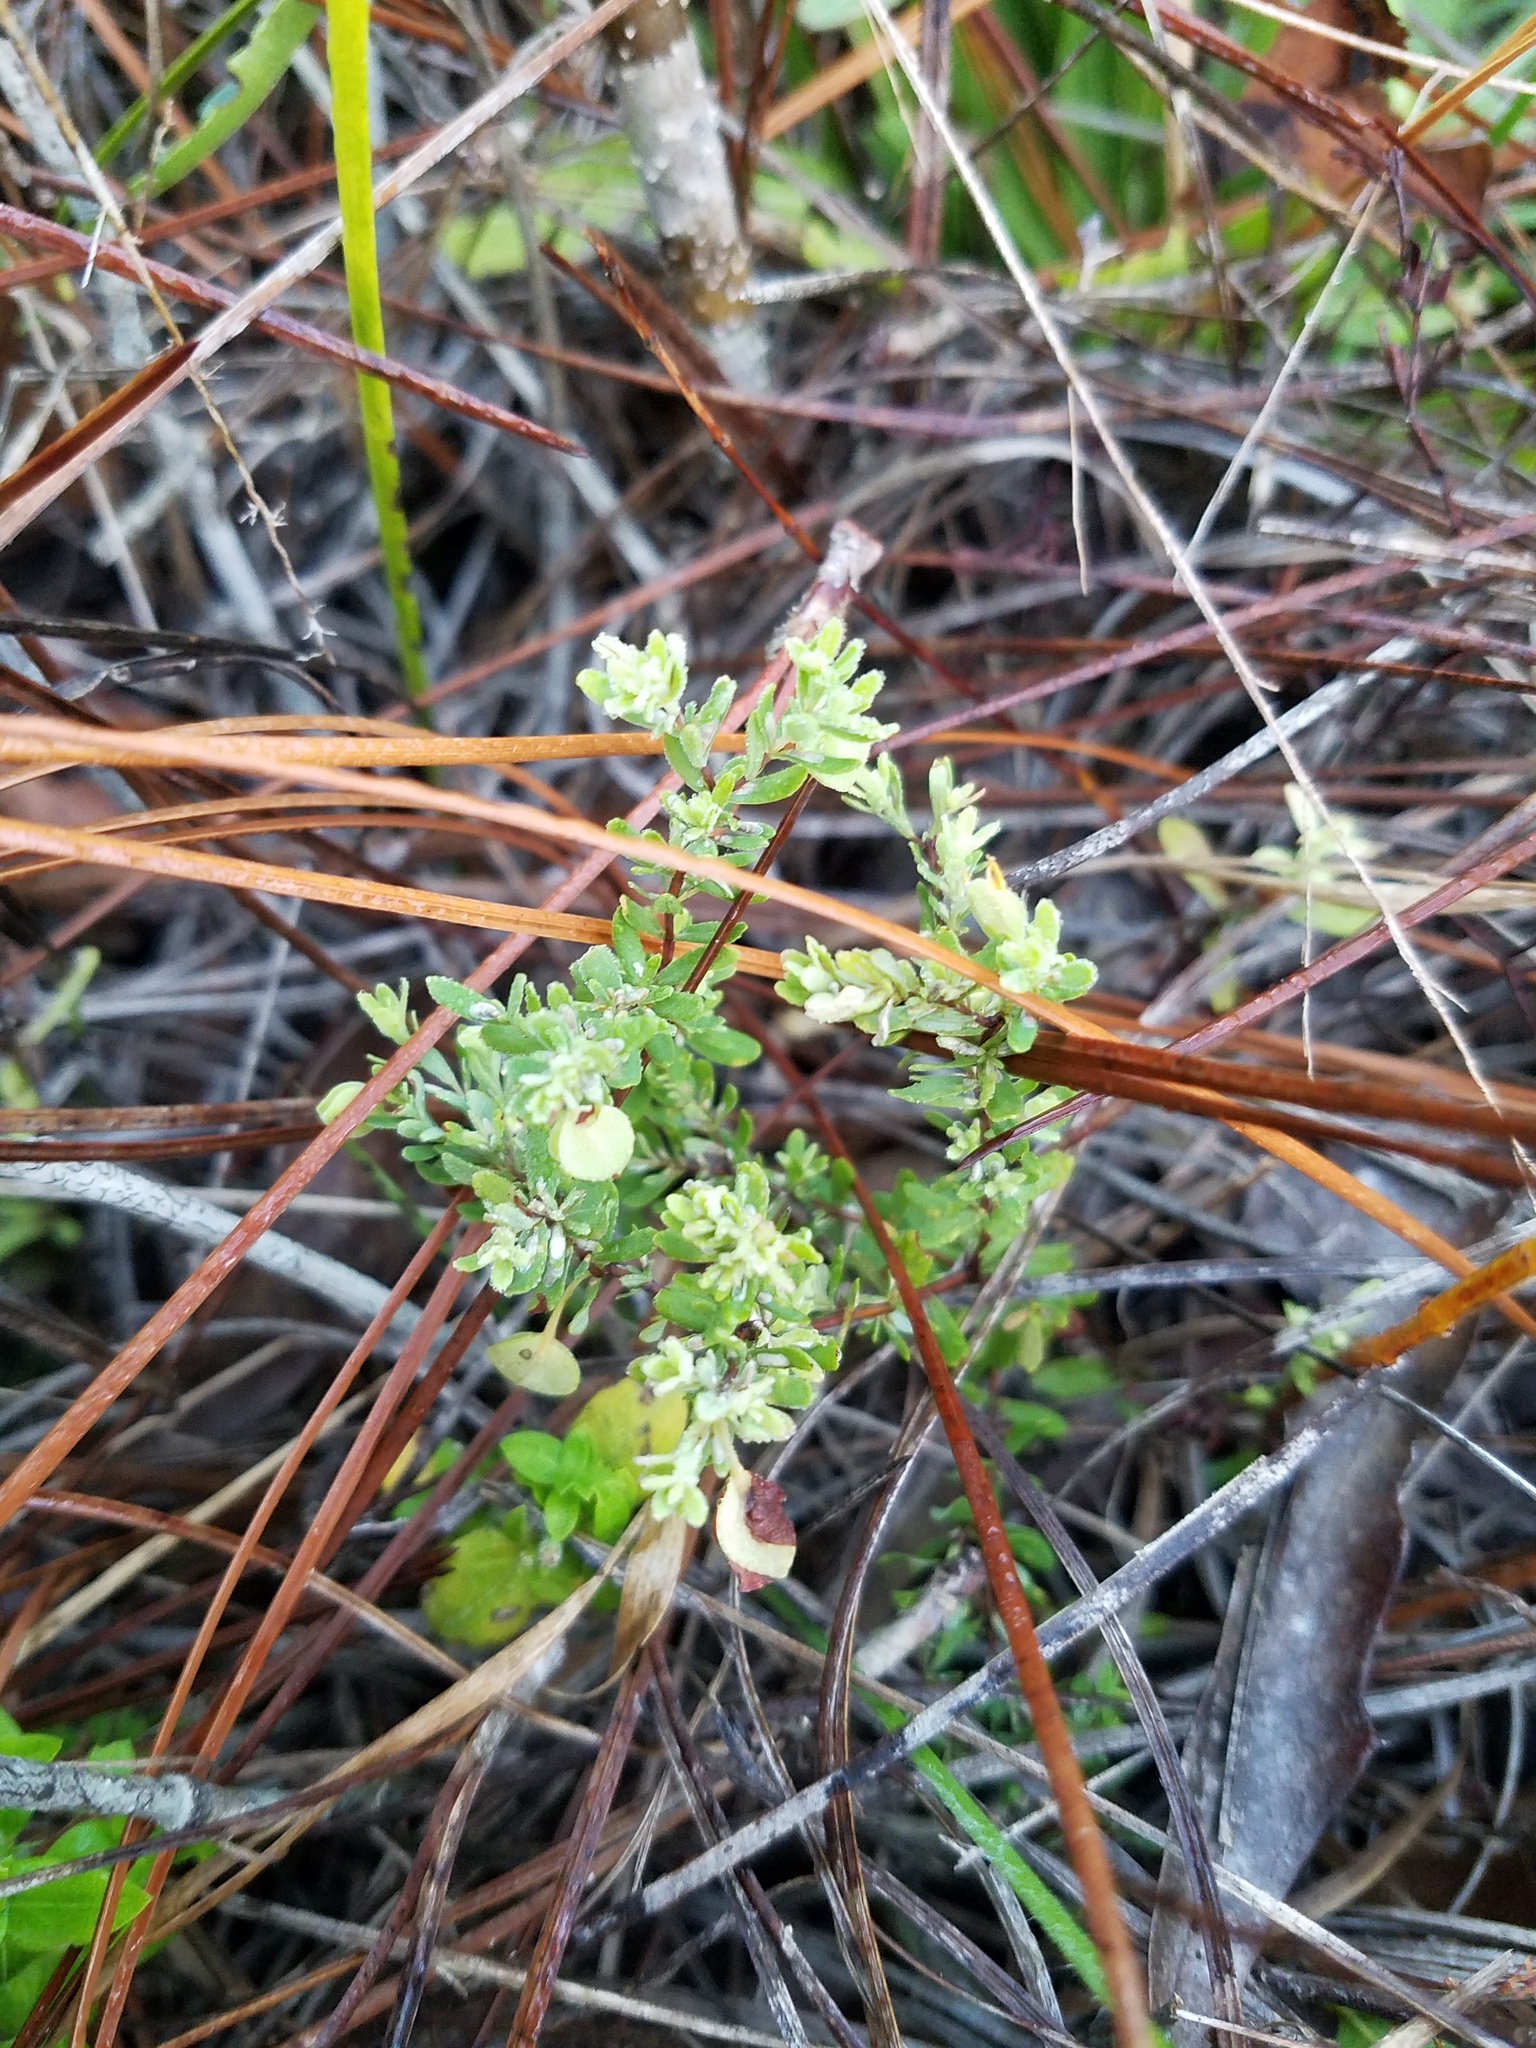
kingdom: Plantae
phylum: Tracheophyta
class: Magnoliopsida
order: Malpighiales
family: Hypericaceae
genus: Hypericum
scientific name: Hypericum suffruticosum
